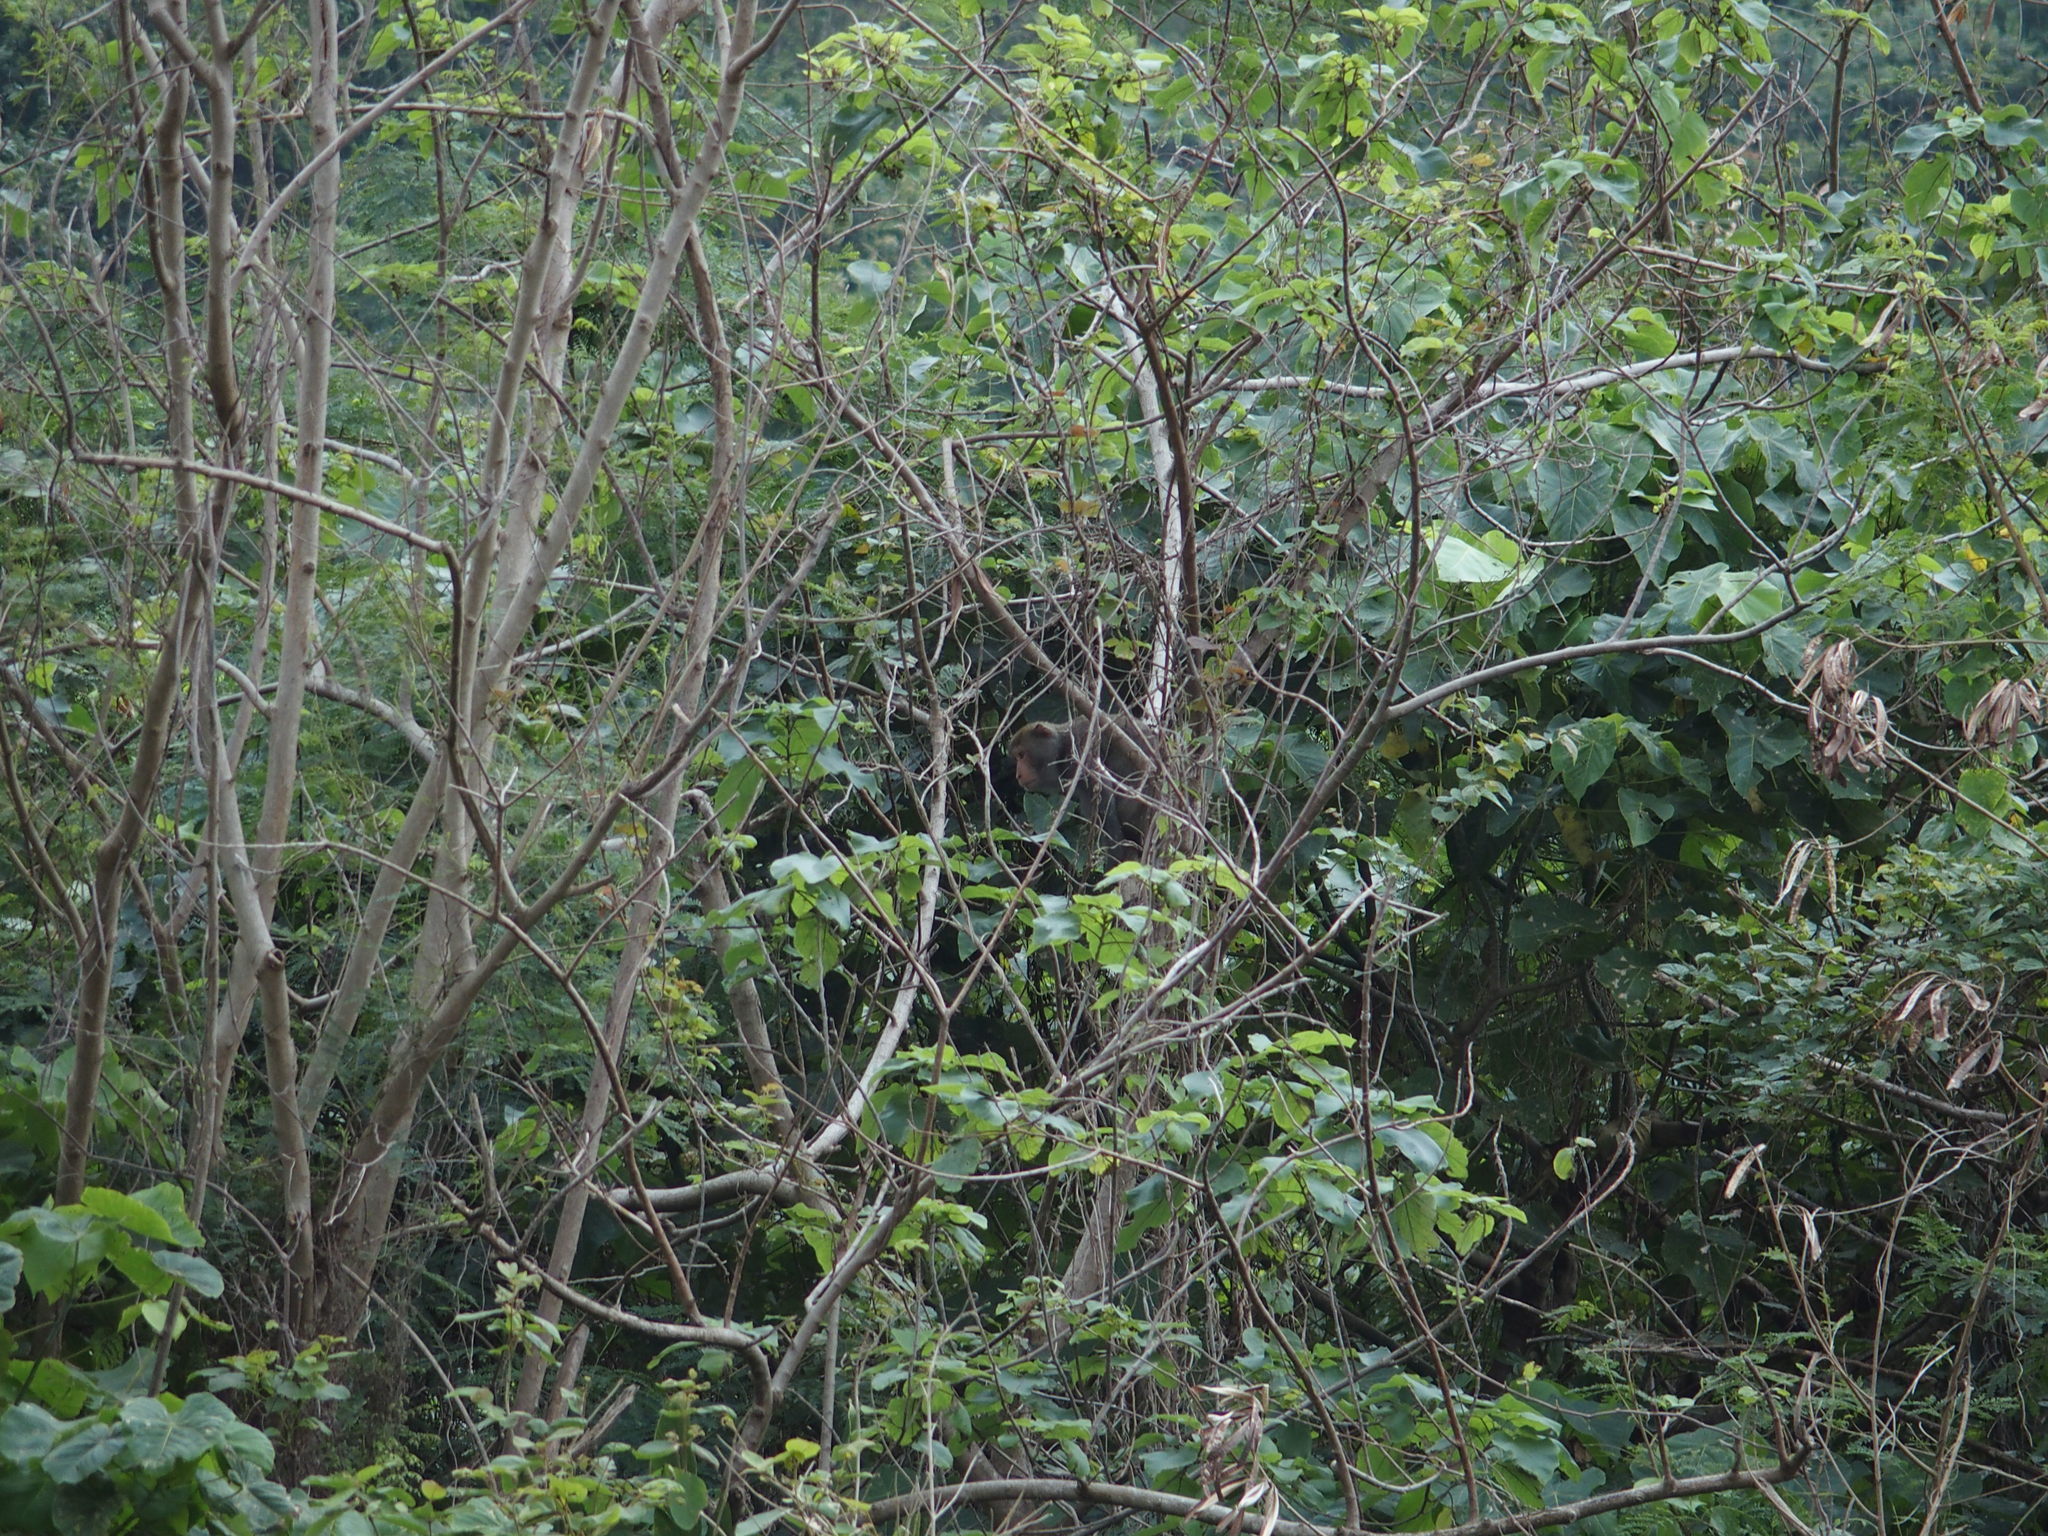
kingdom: Animalia
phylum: Chordata
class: Mammalia
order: Primates
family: Cercopithecidae
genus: Macaca
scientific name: Macaca cyclopis
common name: Formosan rock macaque
